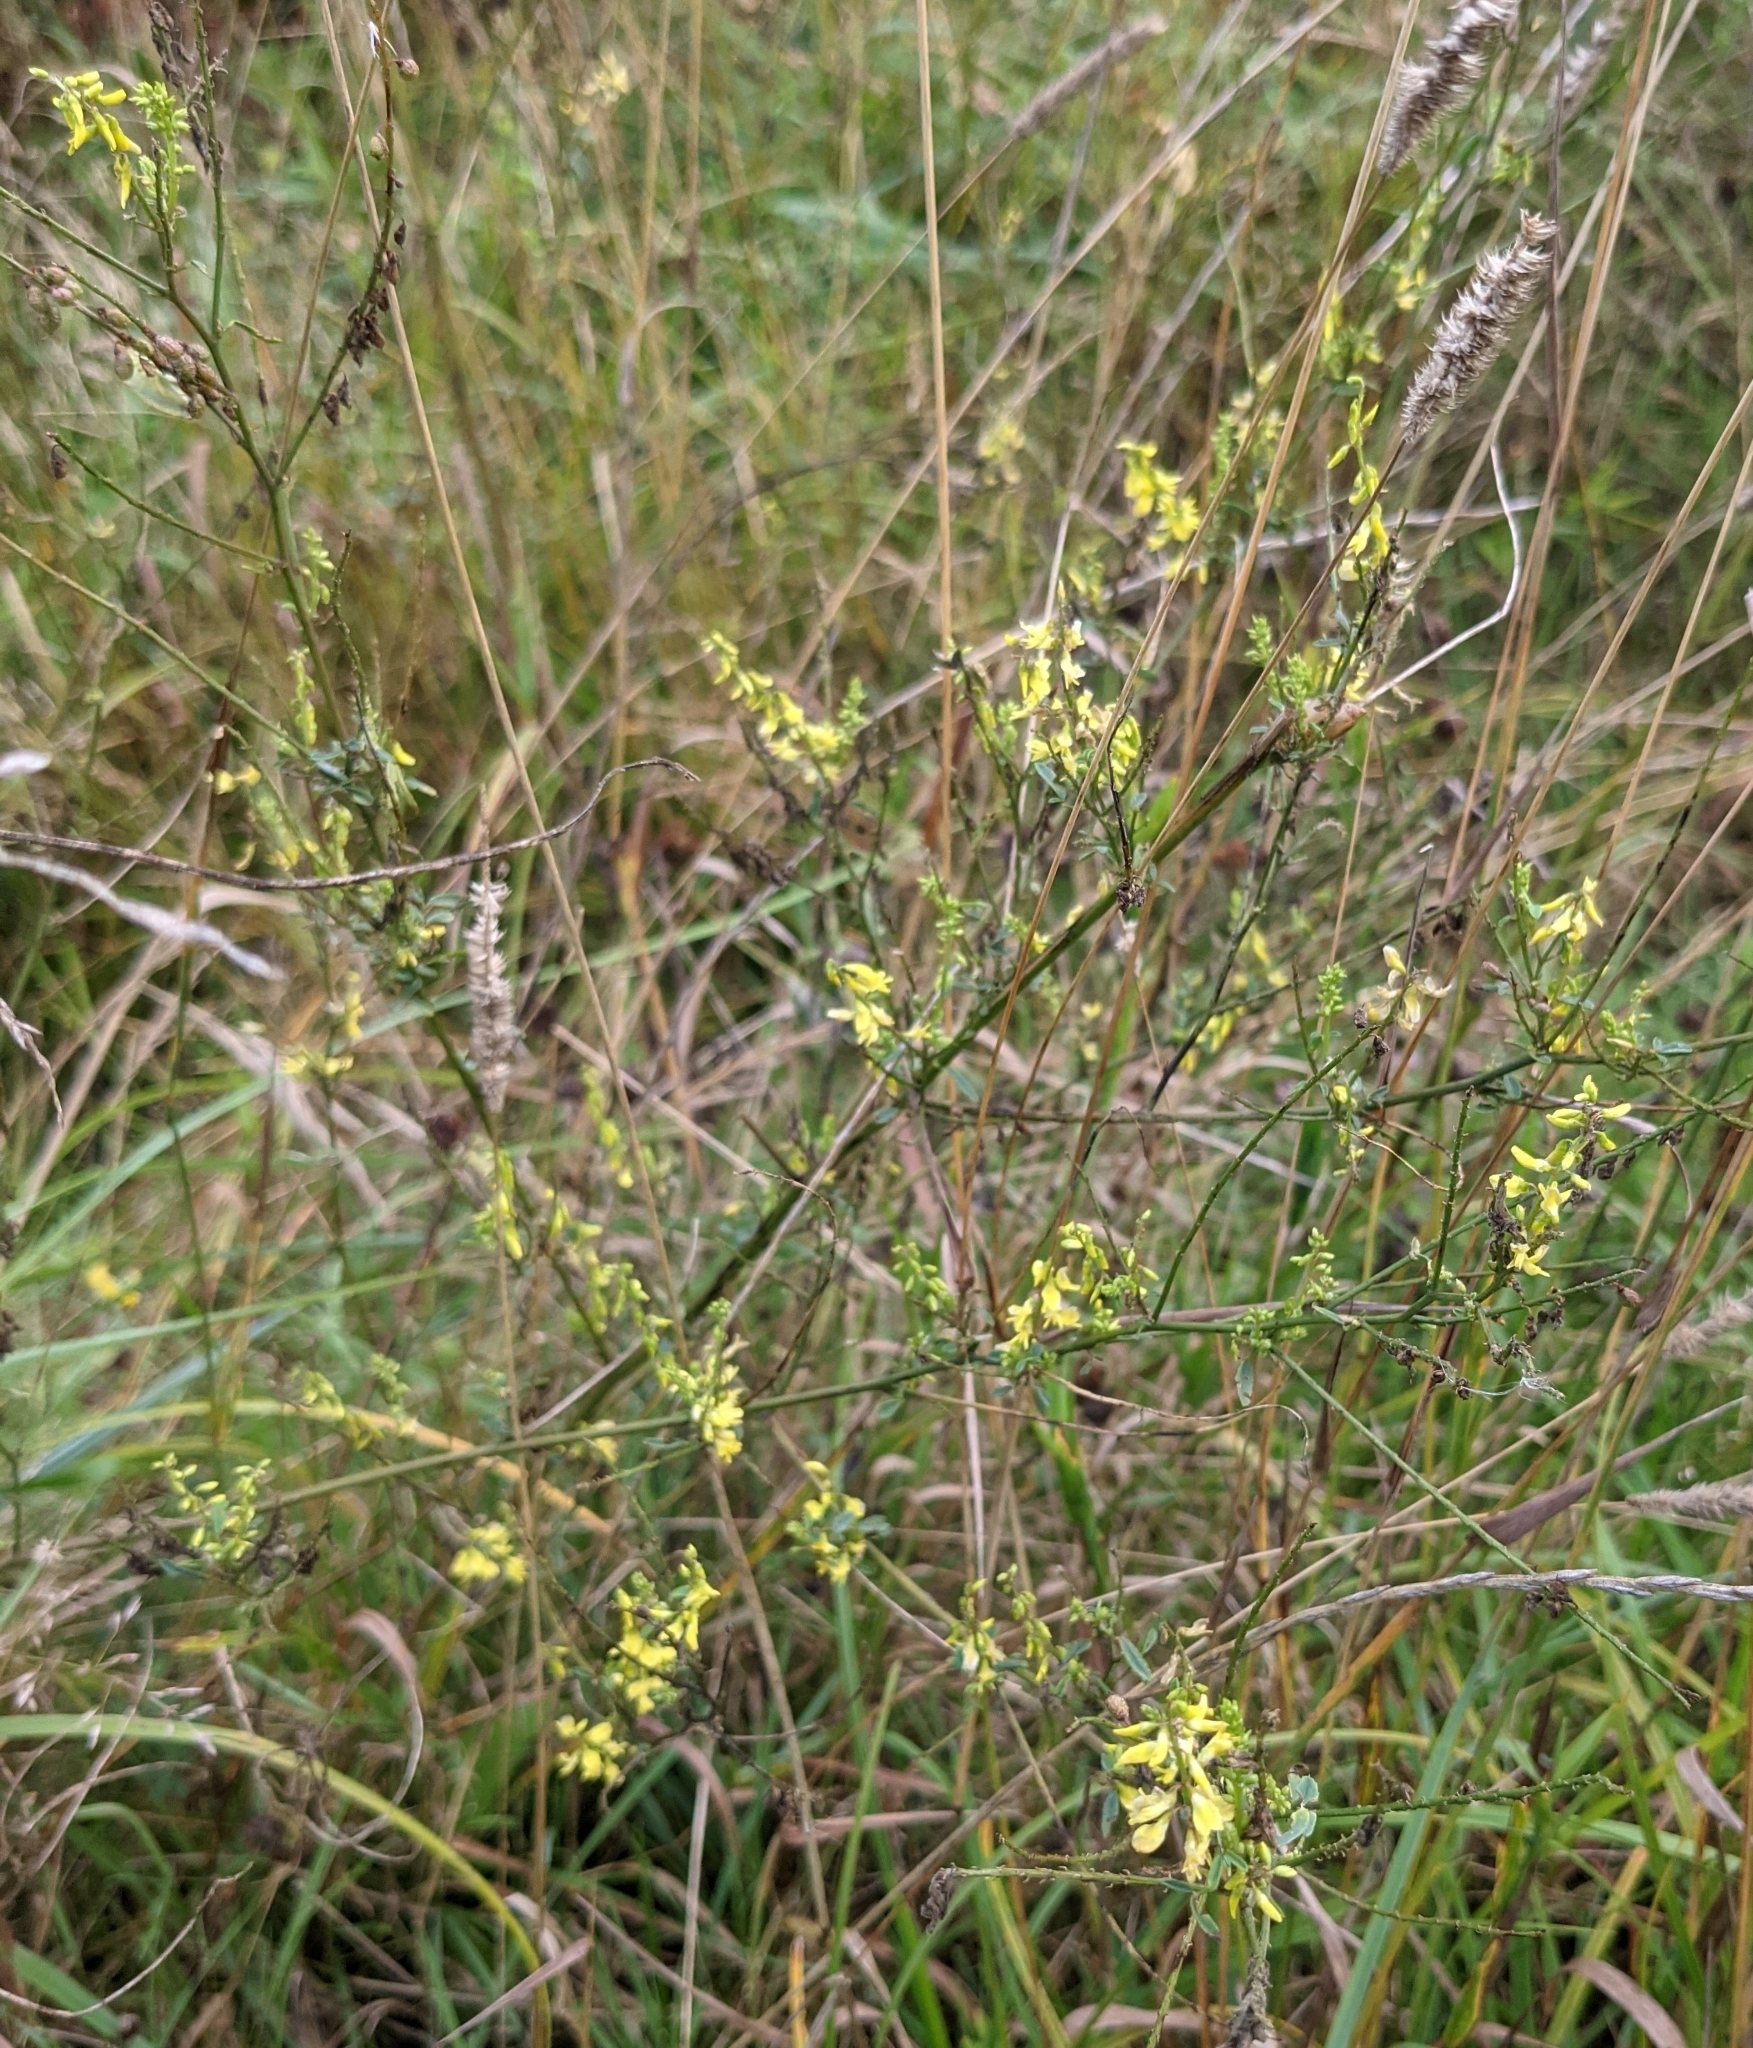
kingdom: Plantae
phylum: Tracheophyta
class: Magnoliopsida
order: Fabales
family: Fabaceae
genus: Melilotus
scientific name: Melilotus officinalis
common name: Sweetclover
